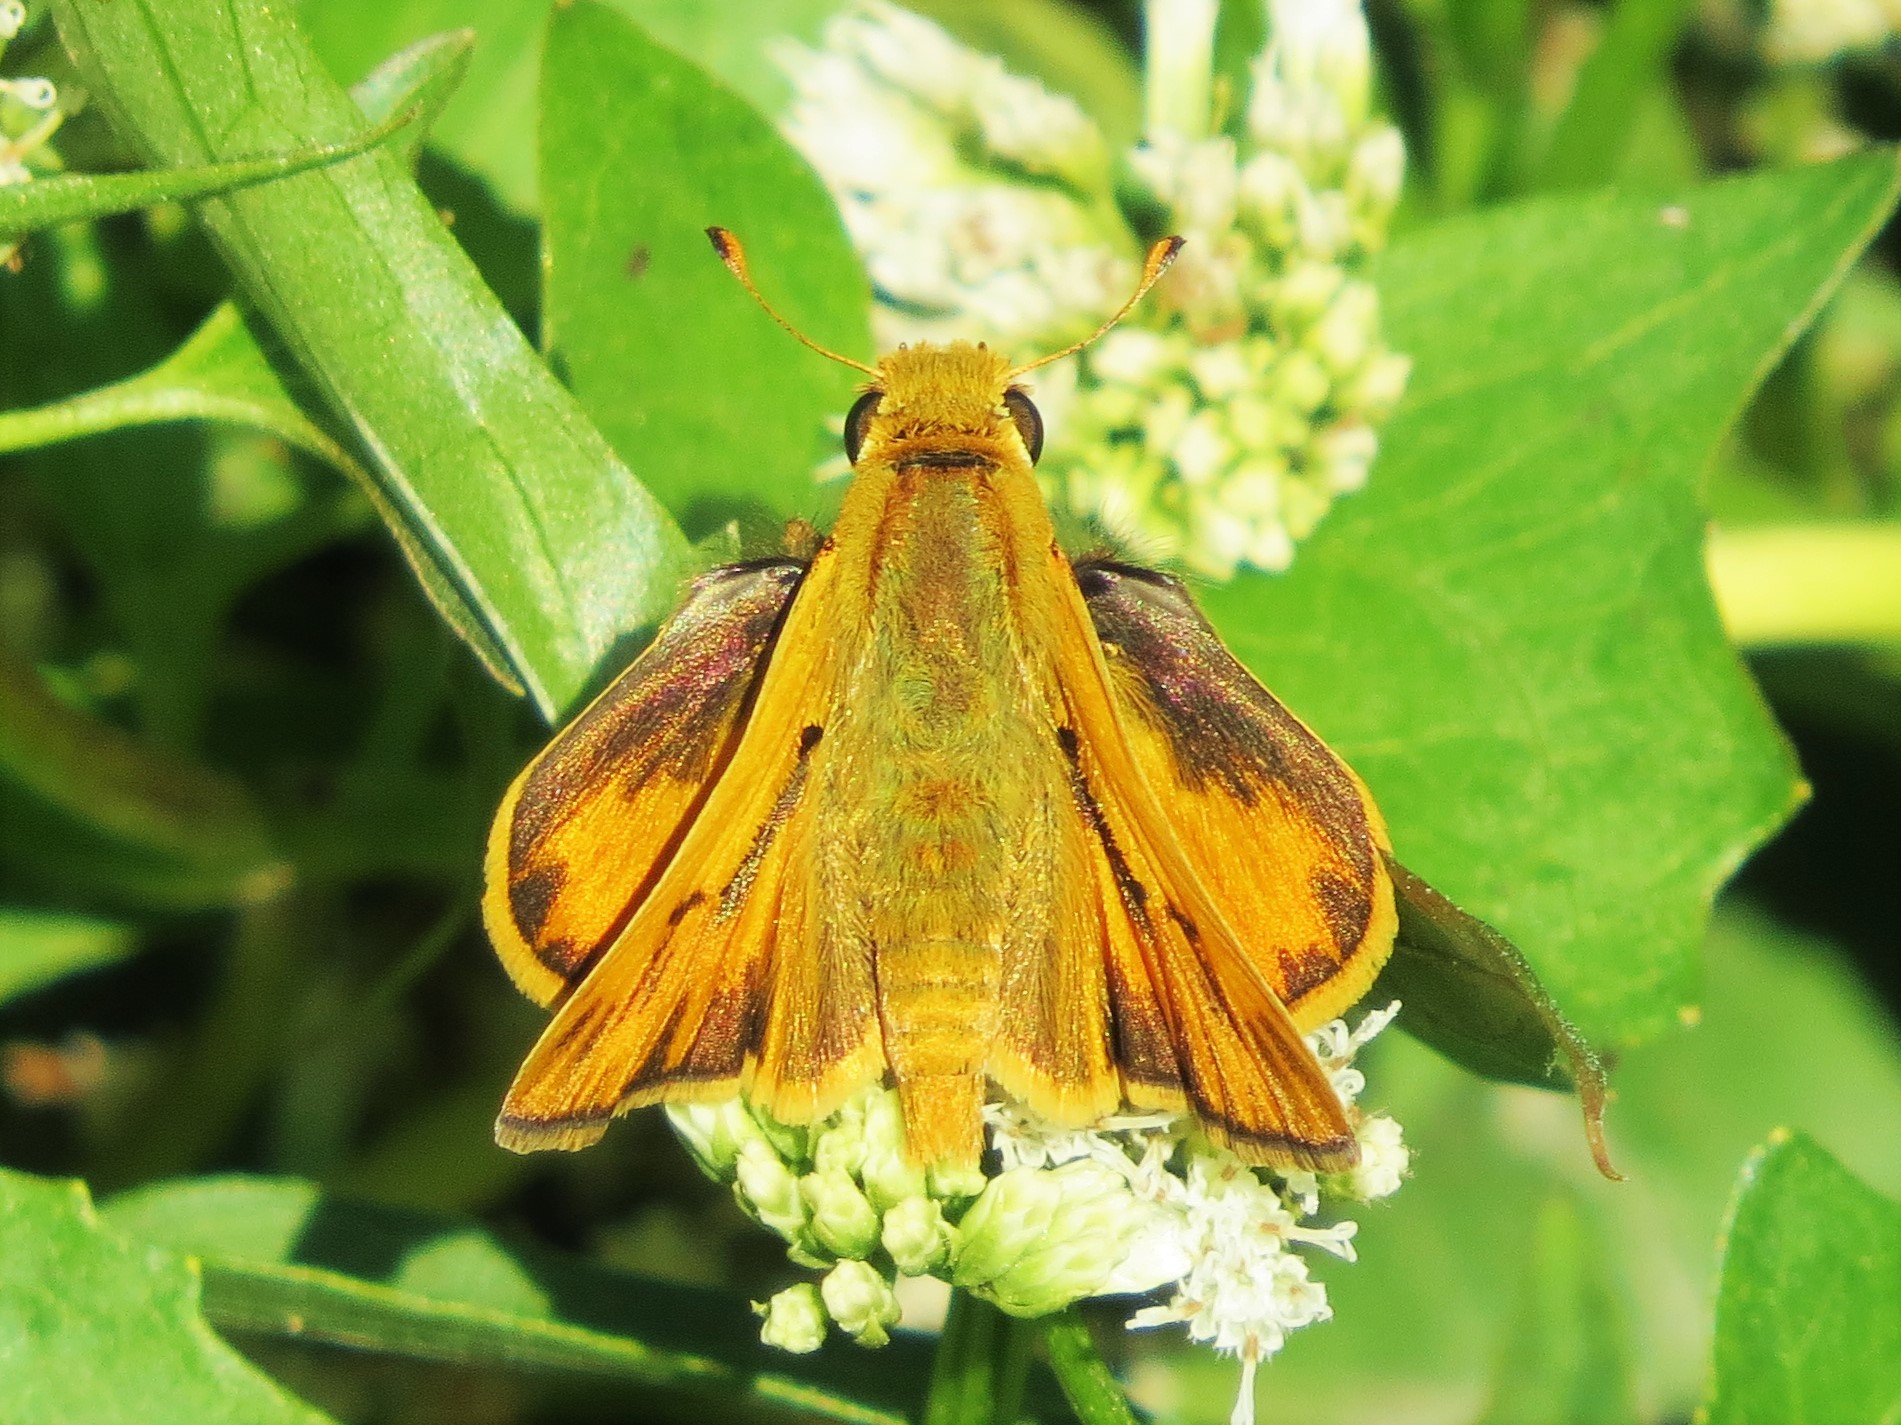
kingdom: Animalia
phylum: Arthropoda
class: Insecta
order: Lepidoptera
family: Hesperiidae
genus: Hylephila
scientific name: Hylephila phyleus
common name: Fiery skipper
